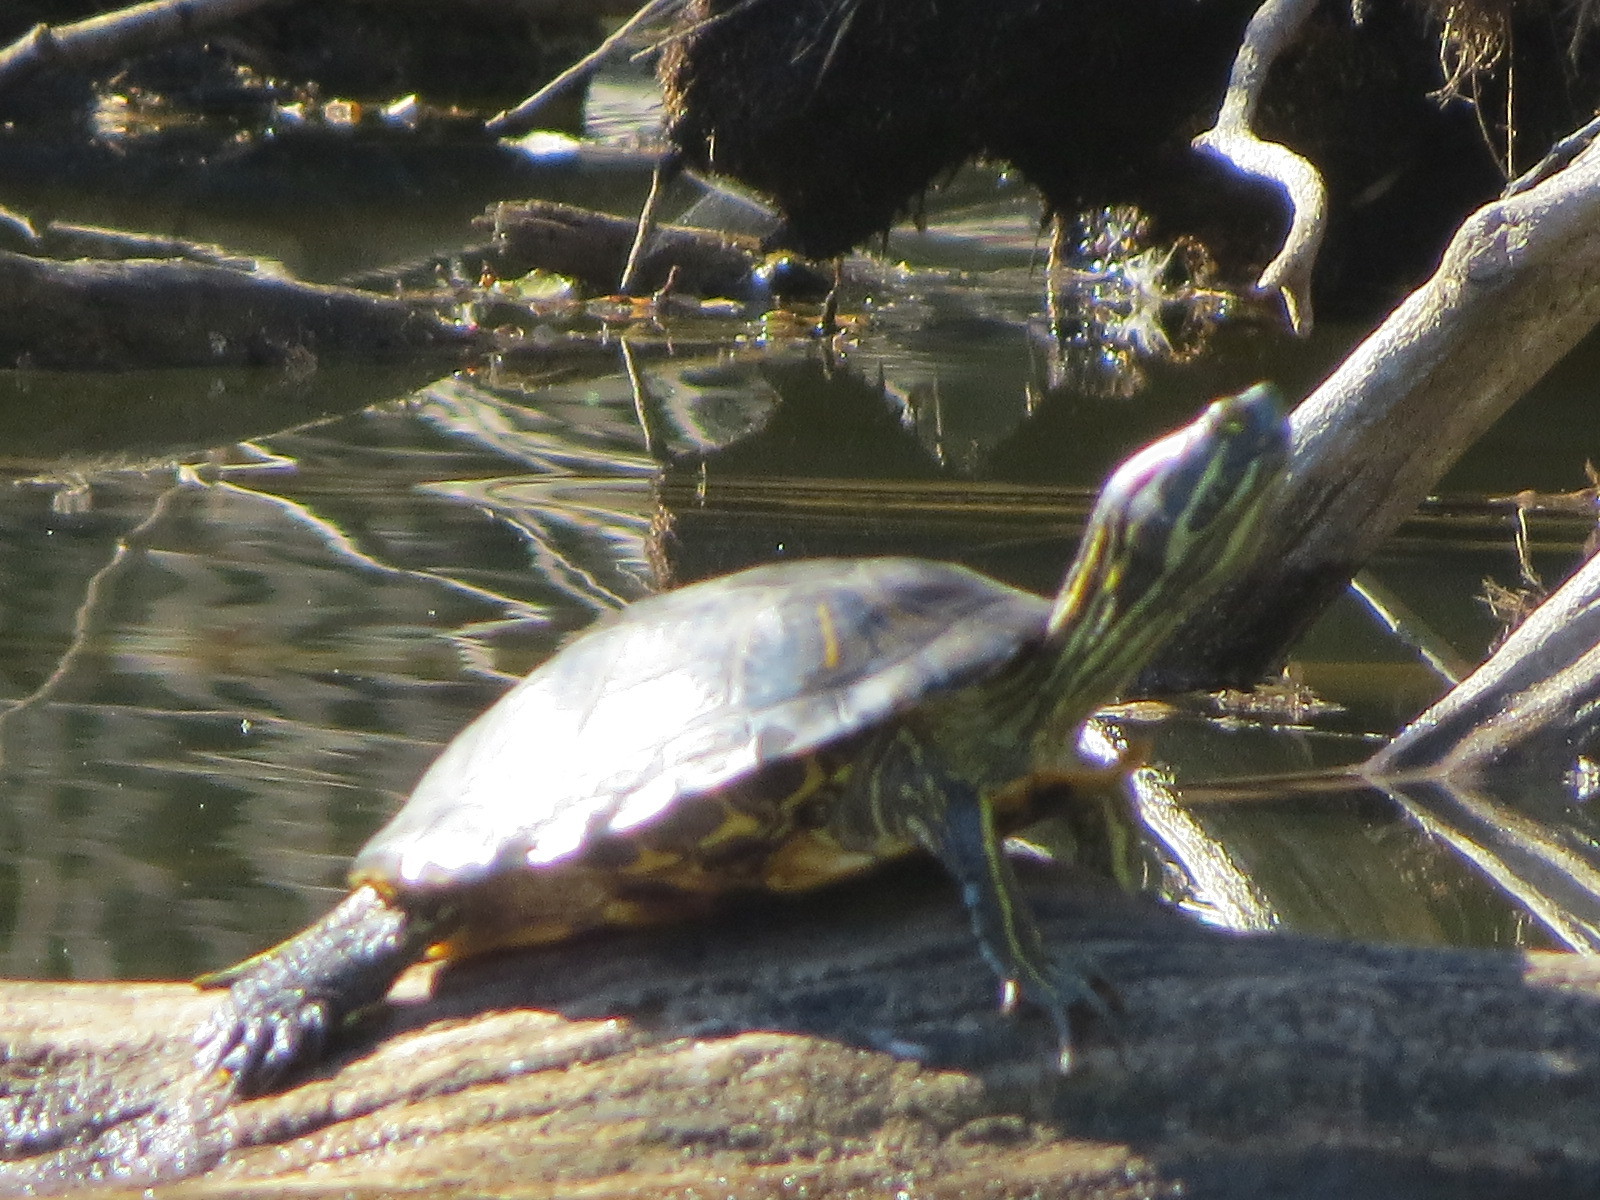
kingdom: Animalia
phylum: Chordata
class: Testudines
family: Emydidae
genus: Trachemys
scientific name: Trachemys scripta
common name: Slider
